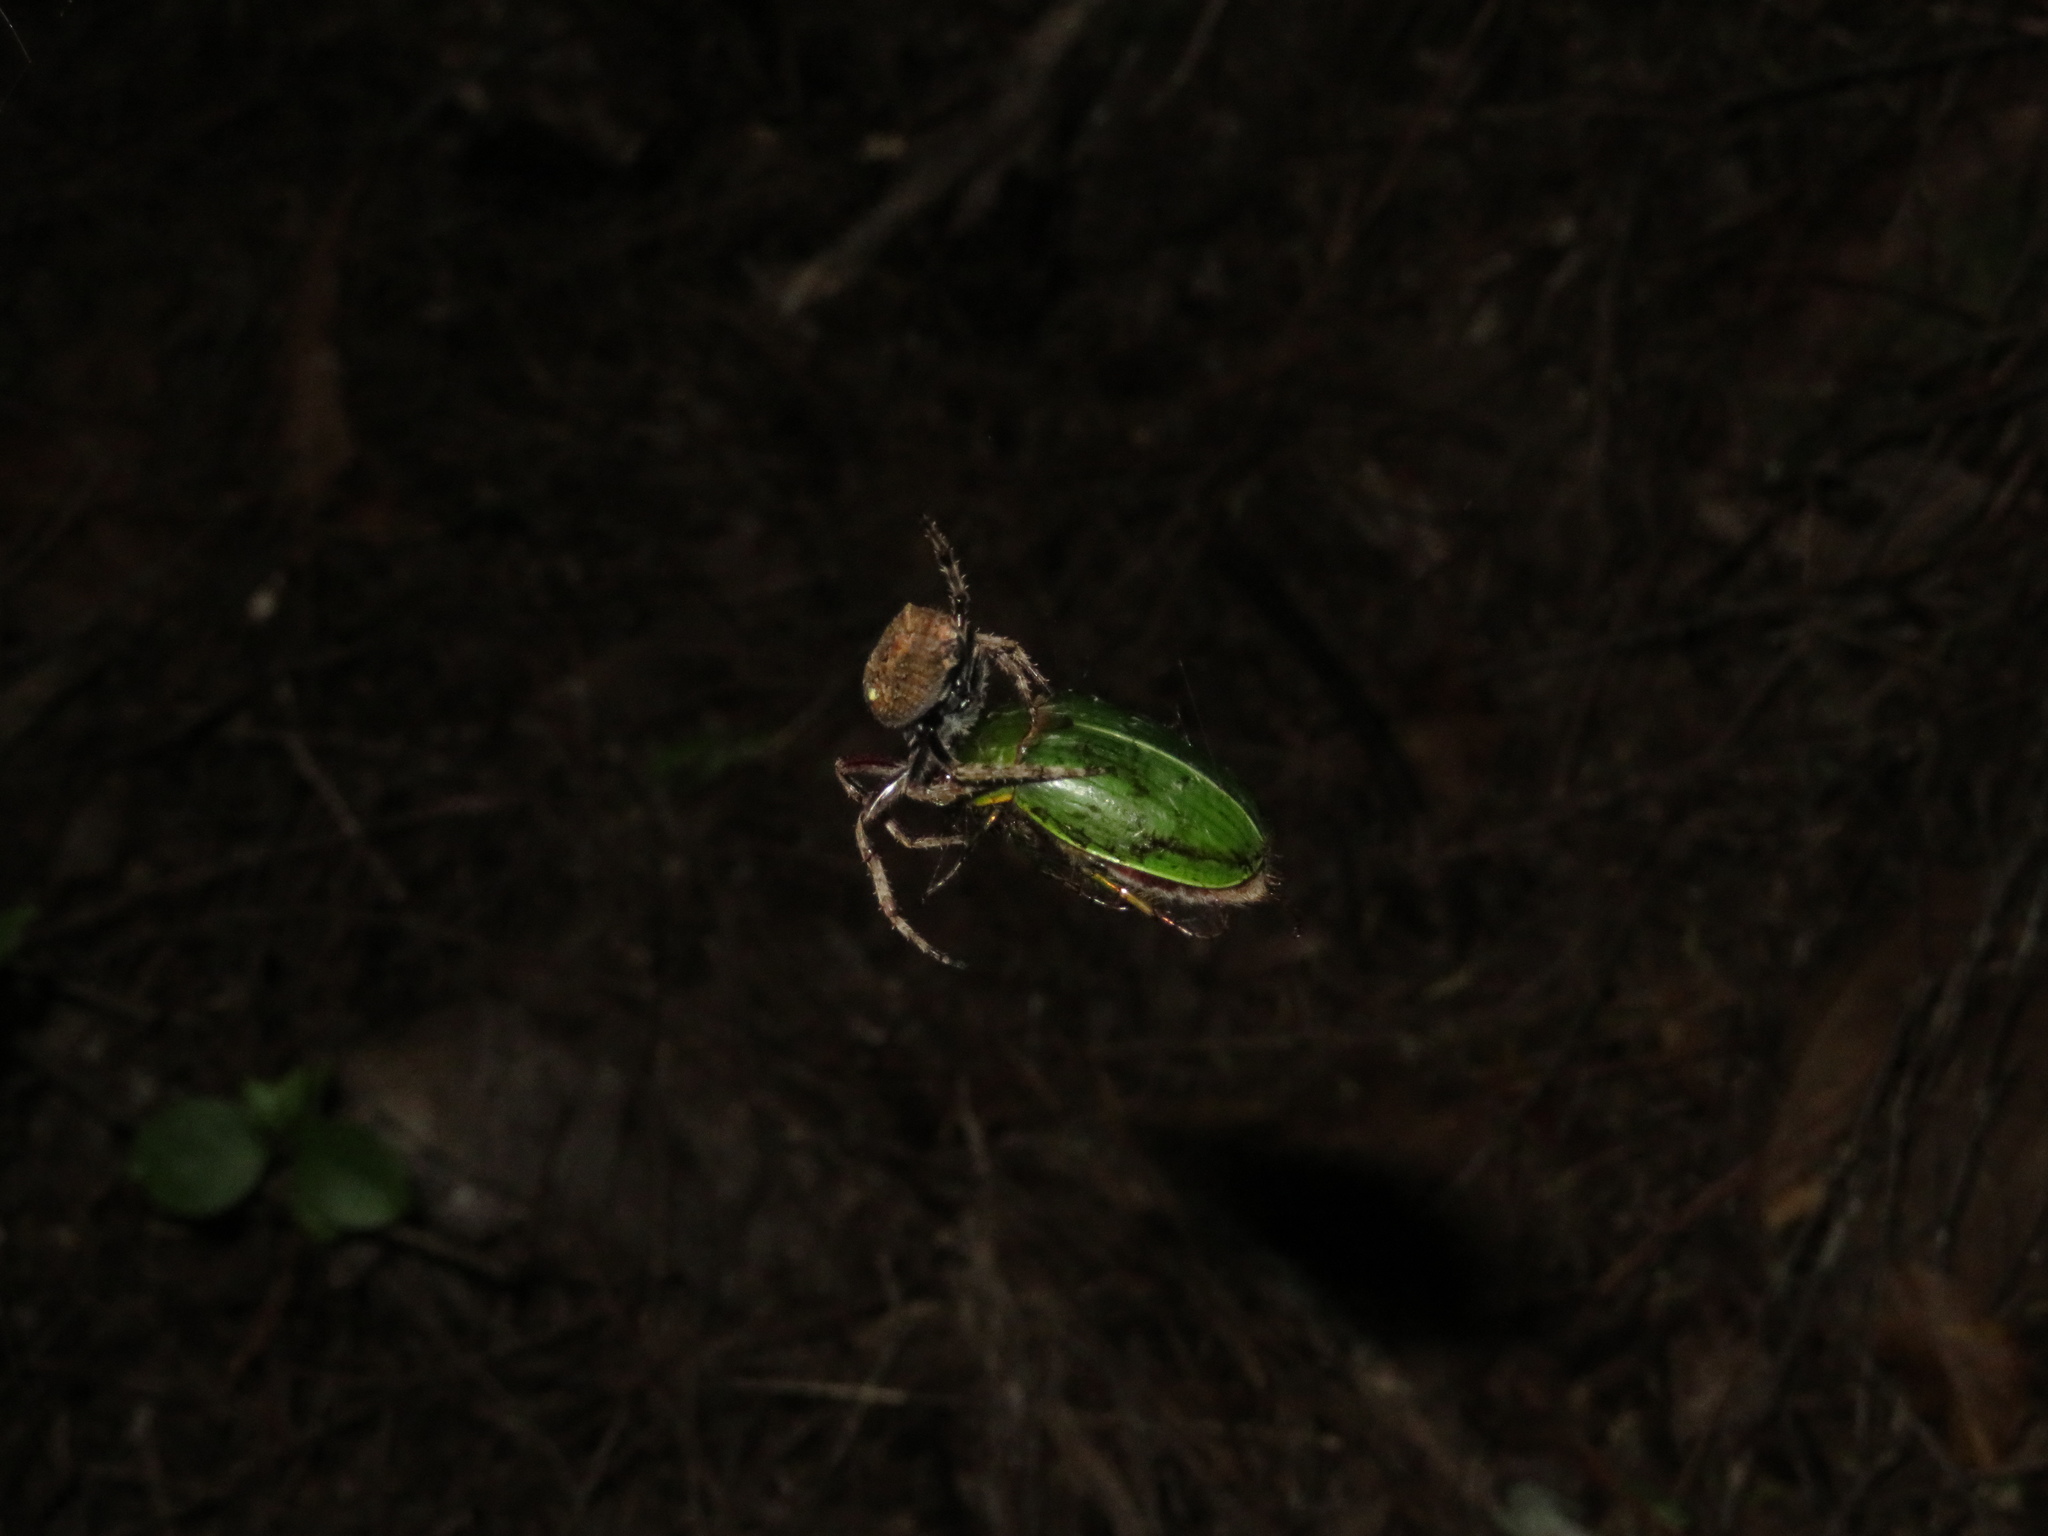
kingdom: Animalia
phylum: Arthropoda
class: Arachnida
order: Araneae
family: Araneidae
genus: Eriophora
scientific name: Eriophora pustulosa
